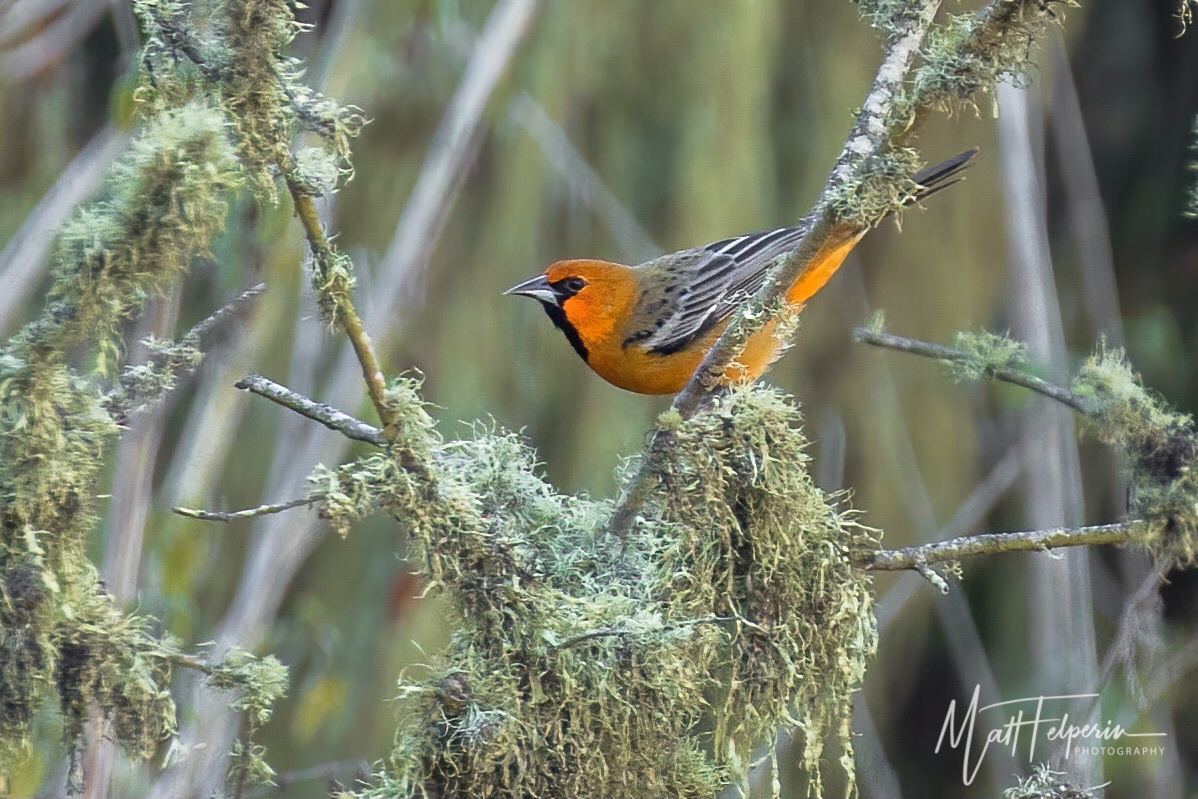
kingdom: Animalia
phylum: Chordata
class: Aves
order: Passeriformes
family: Icteridae
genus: Icterus
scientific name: Icterus pustulatus
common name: Streak-backed oriole
